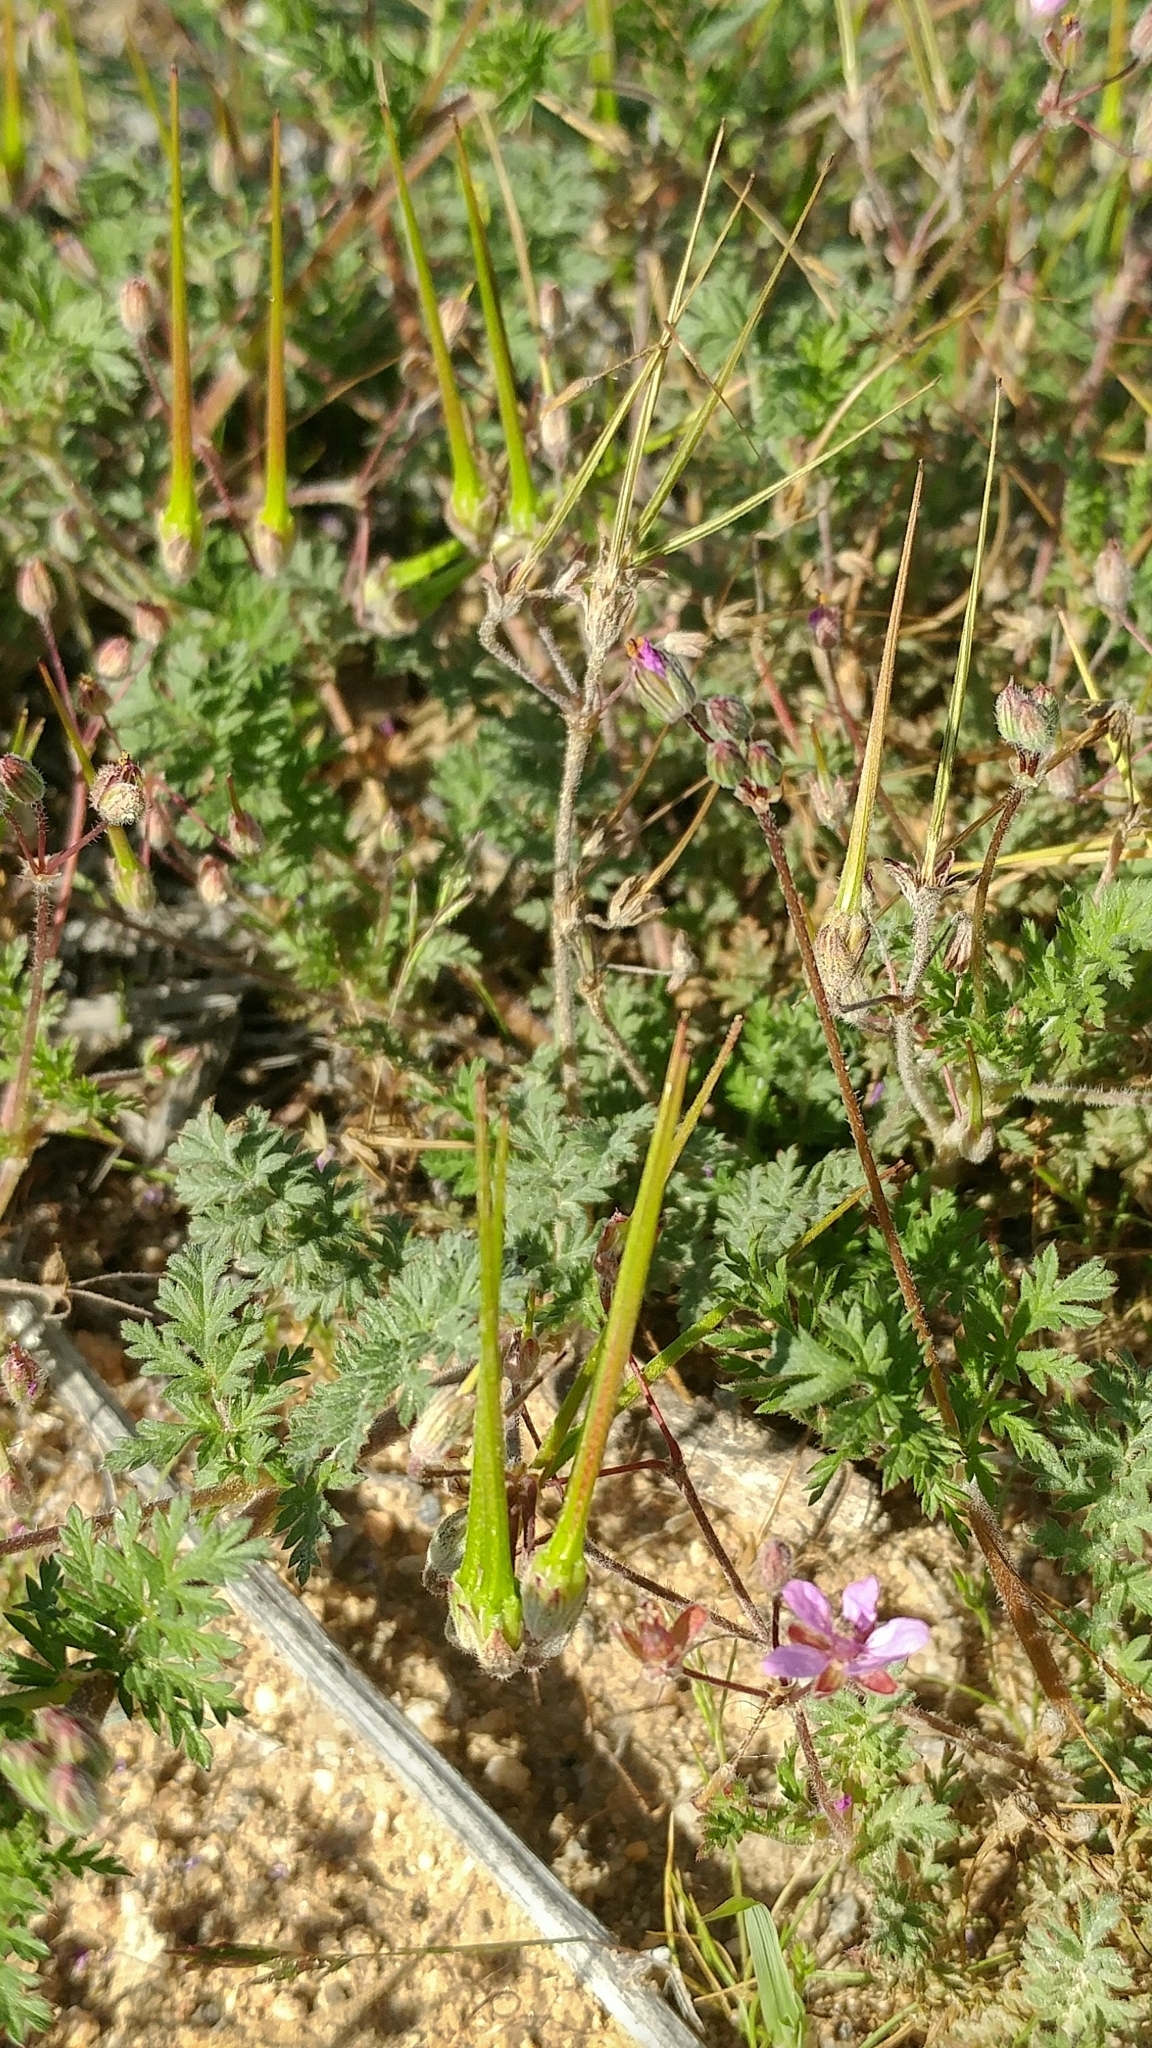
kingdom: Plantae
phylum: Tracheophyta
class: Magnoliopsida
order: Geraniales
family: Geraniaceae
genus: Erodium
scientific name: Erodium cicutarium
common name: Common stork's-bill
